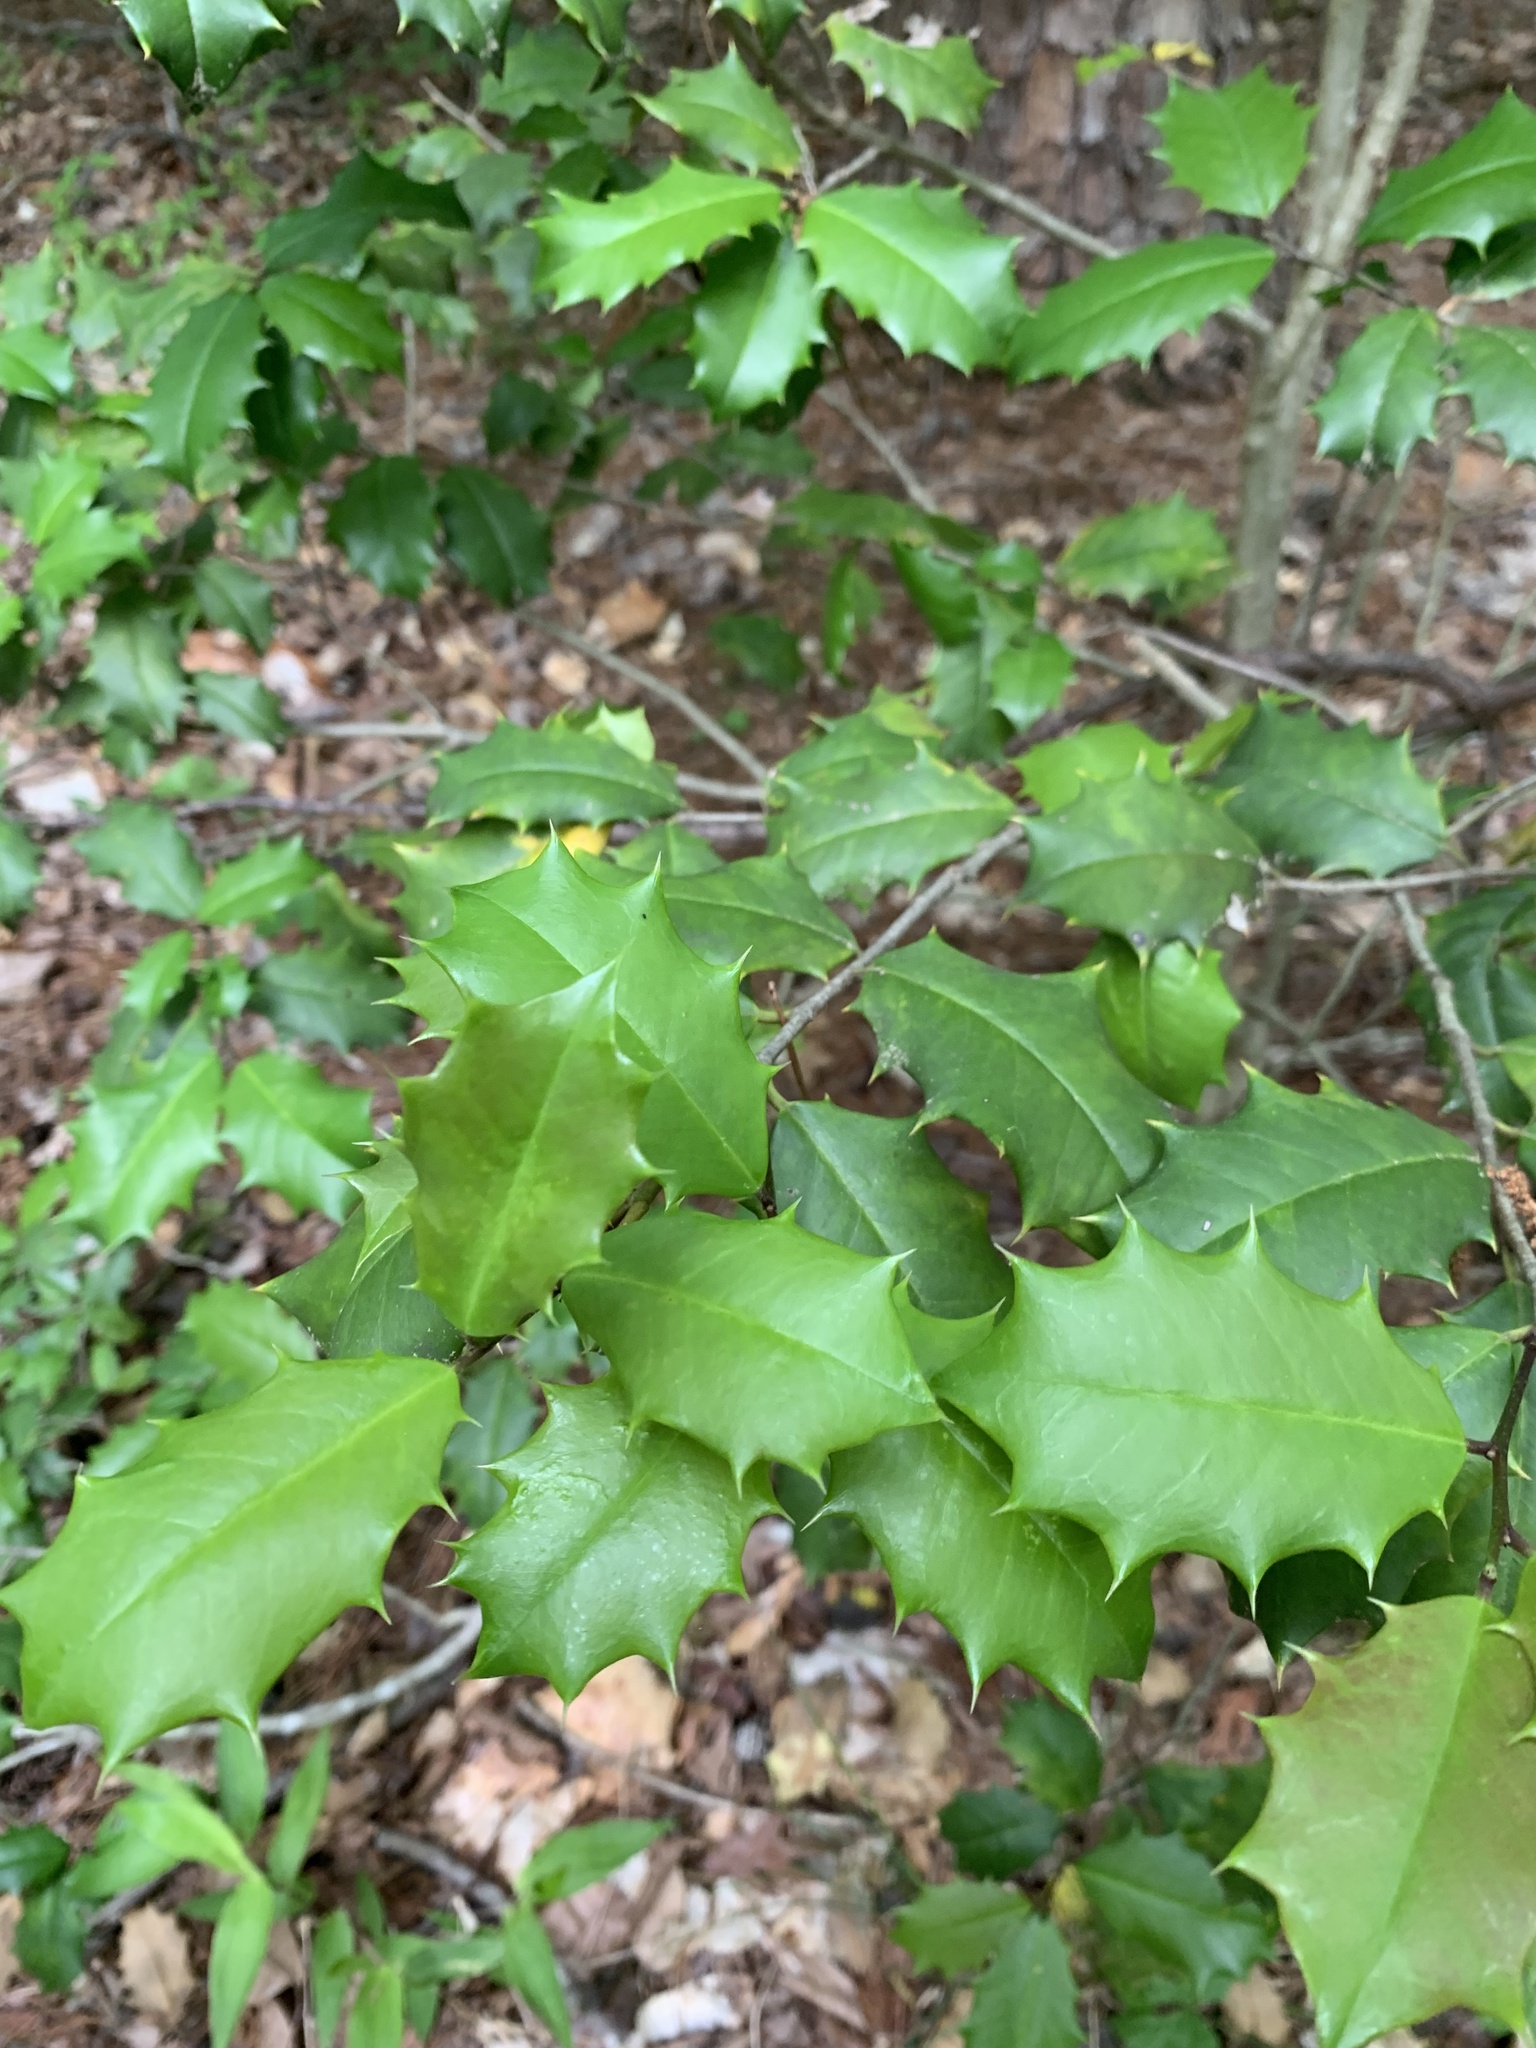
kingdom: Plantae
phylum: Tracheophyta
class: Magnoliopsida
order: Aquifoliales
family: Aquifoliaceae
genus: Ilex
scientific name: Ilex opaca
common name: American holly
